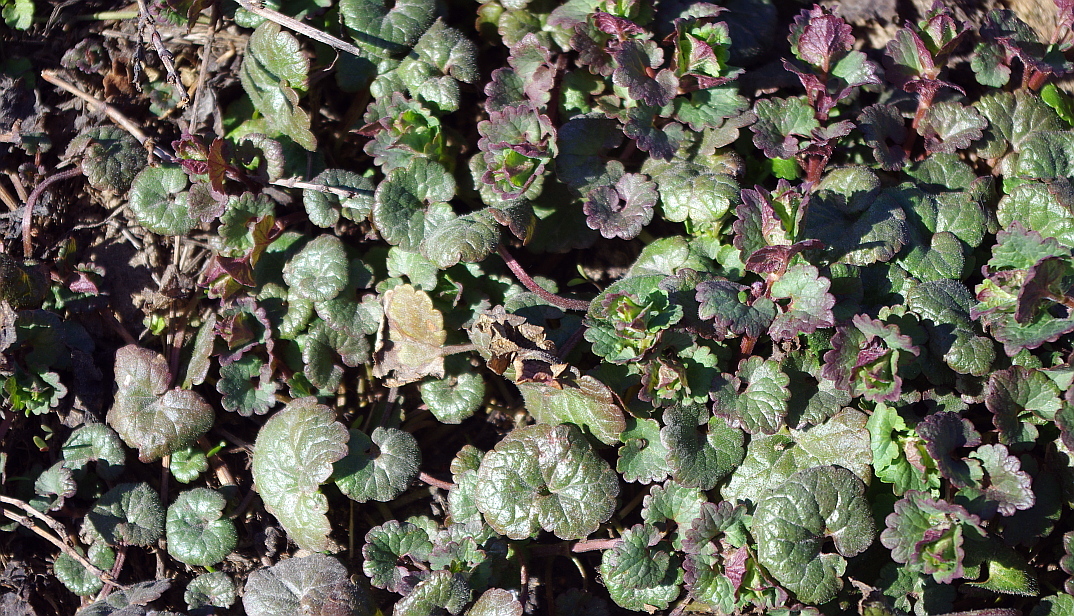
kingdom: Plantae
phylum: Tracheophyta
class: Magnoliopsida
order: Lamiales
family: Lamiaceae
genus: Glechoma
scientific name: Glechoma hederacea
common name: Ground ivy
